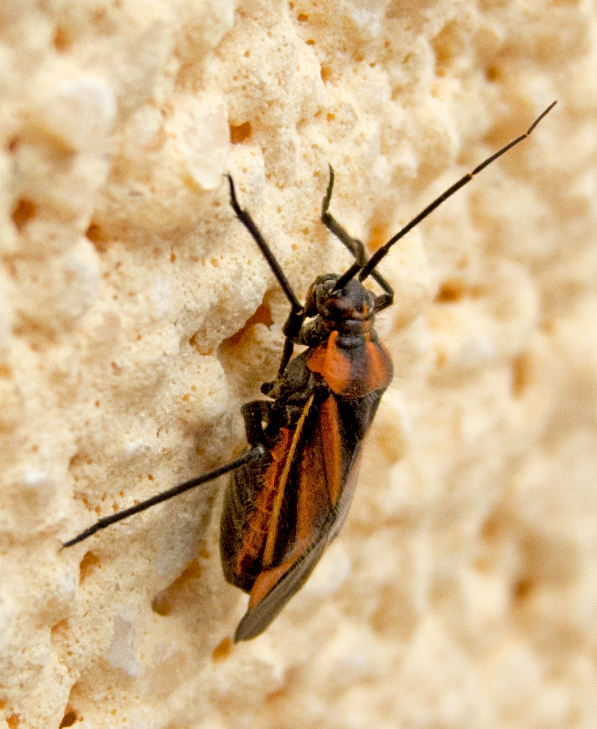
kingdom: Animalia
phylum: Arthropoda
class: Insecta
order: Hemiptera
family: Miridae
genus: Horistus
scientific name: Horistus infuscatus
